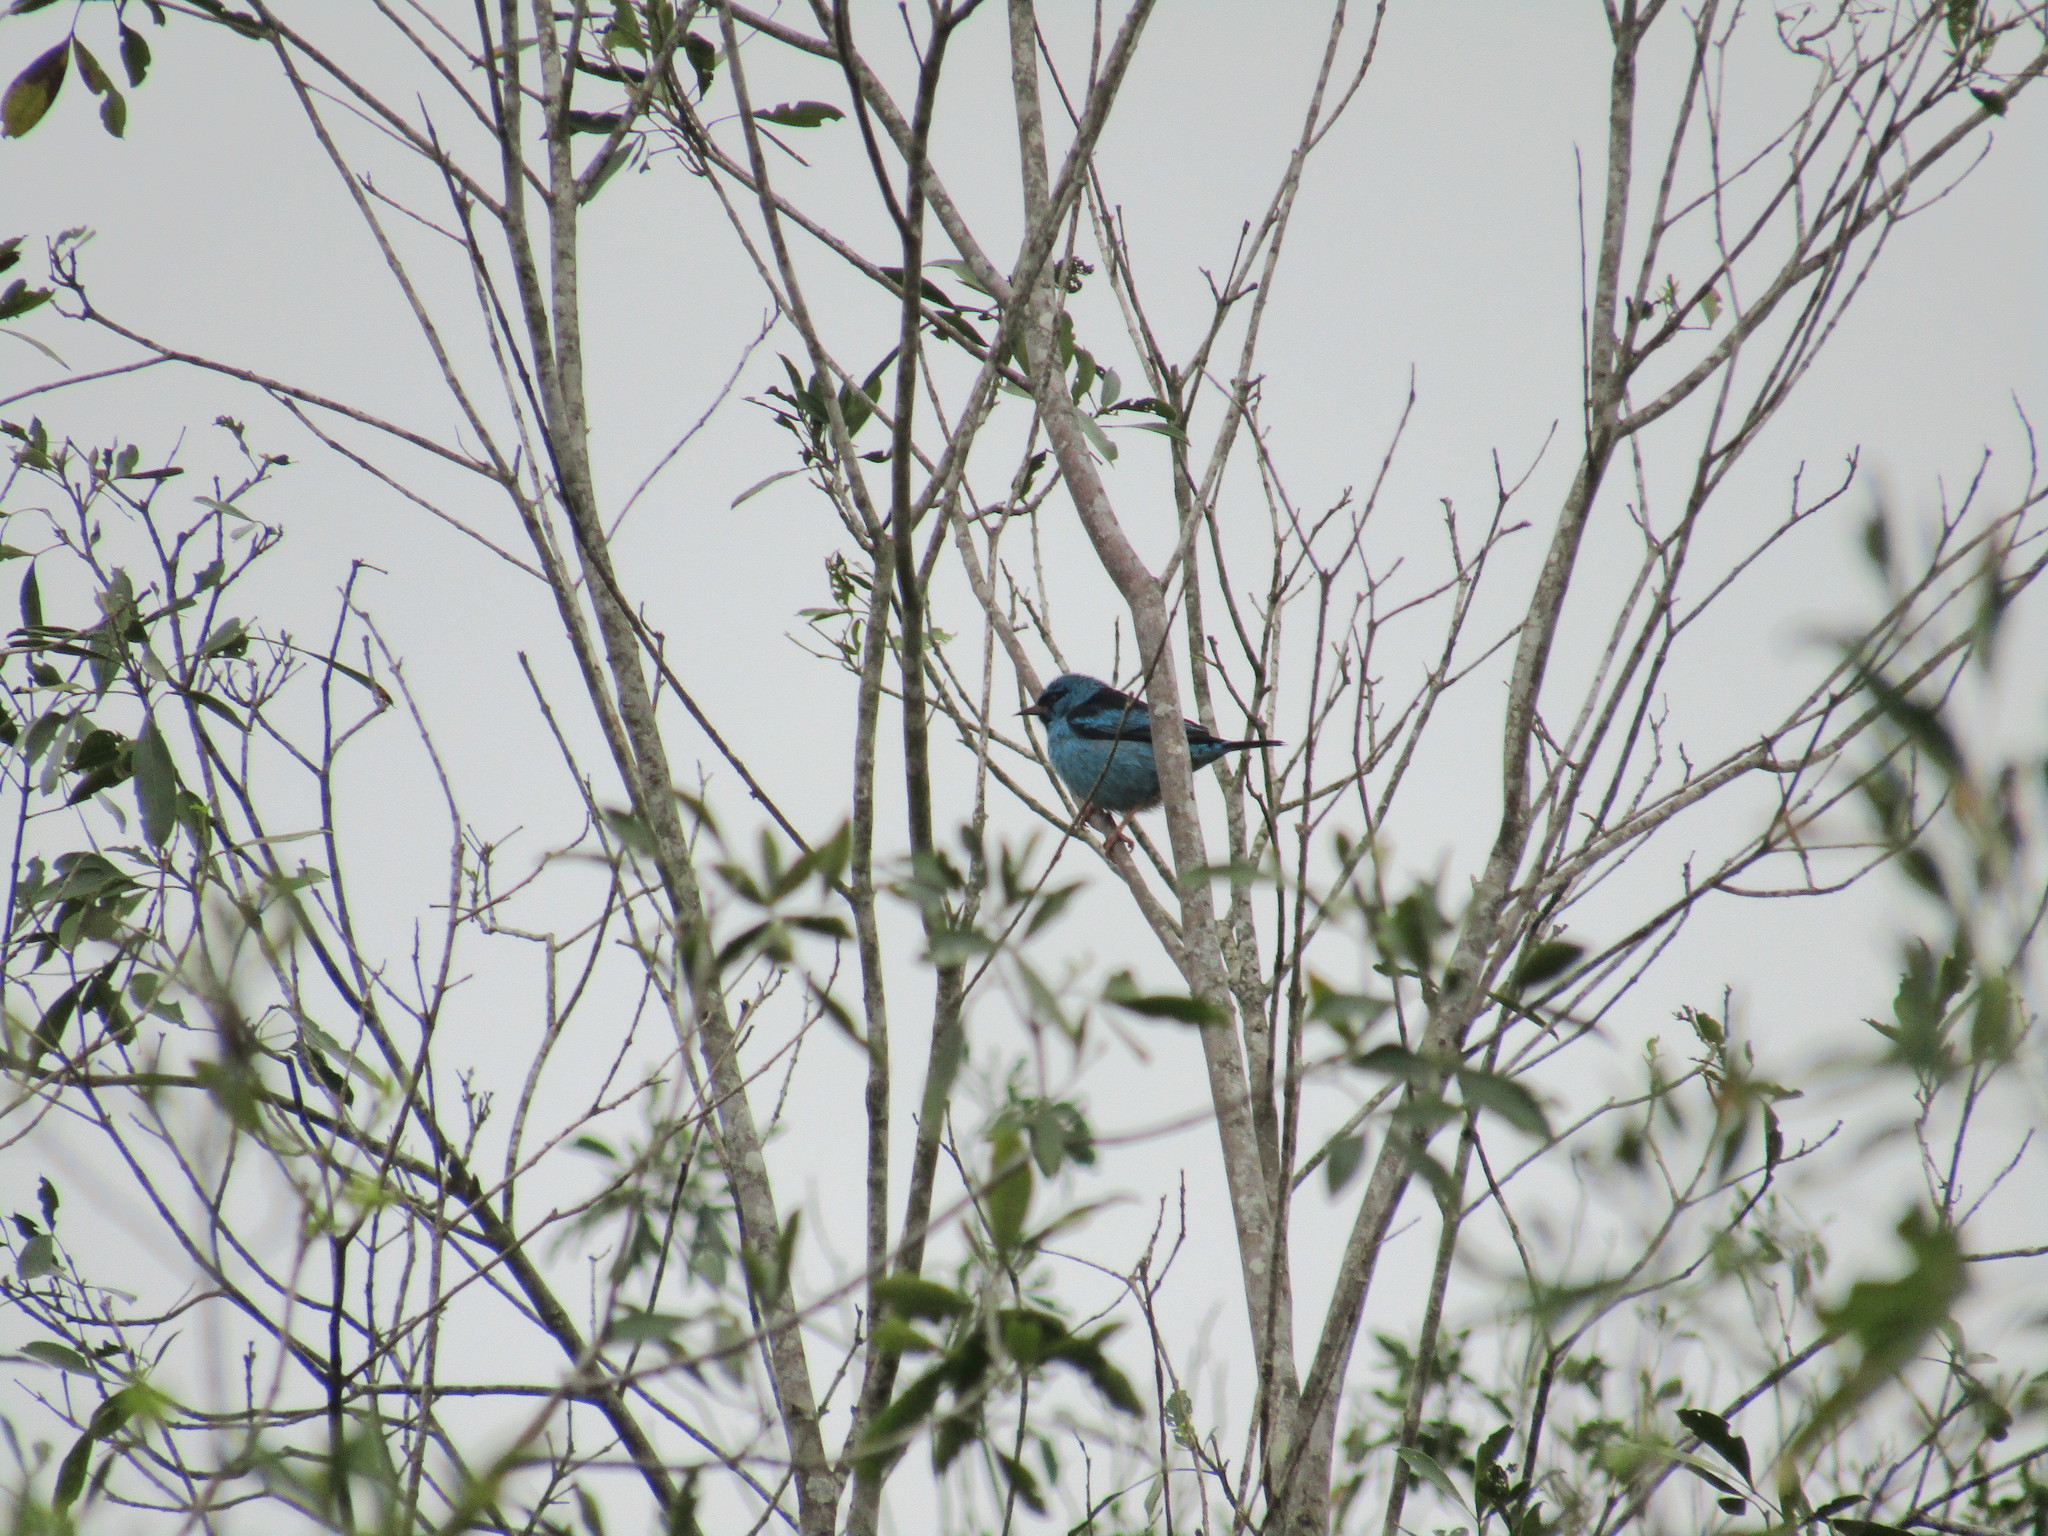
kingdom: Animalia
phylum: Chordata
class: Aves
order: Passeriformes
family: Thraupidae
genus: Dacnis
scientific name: Dacnis cayana
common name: Blue dacnis
